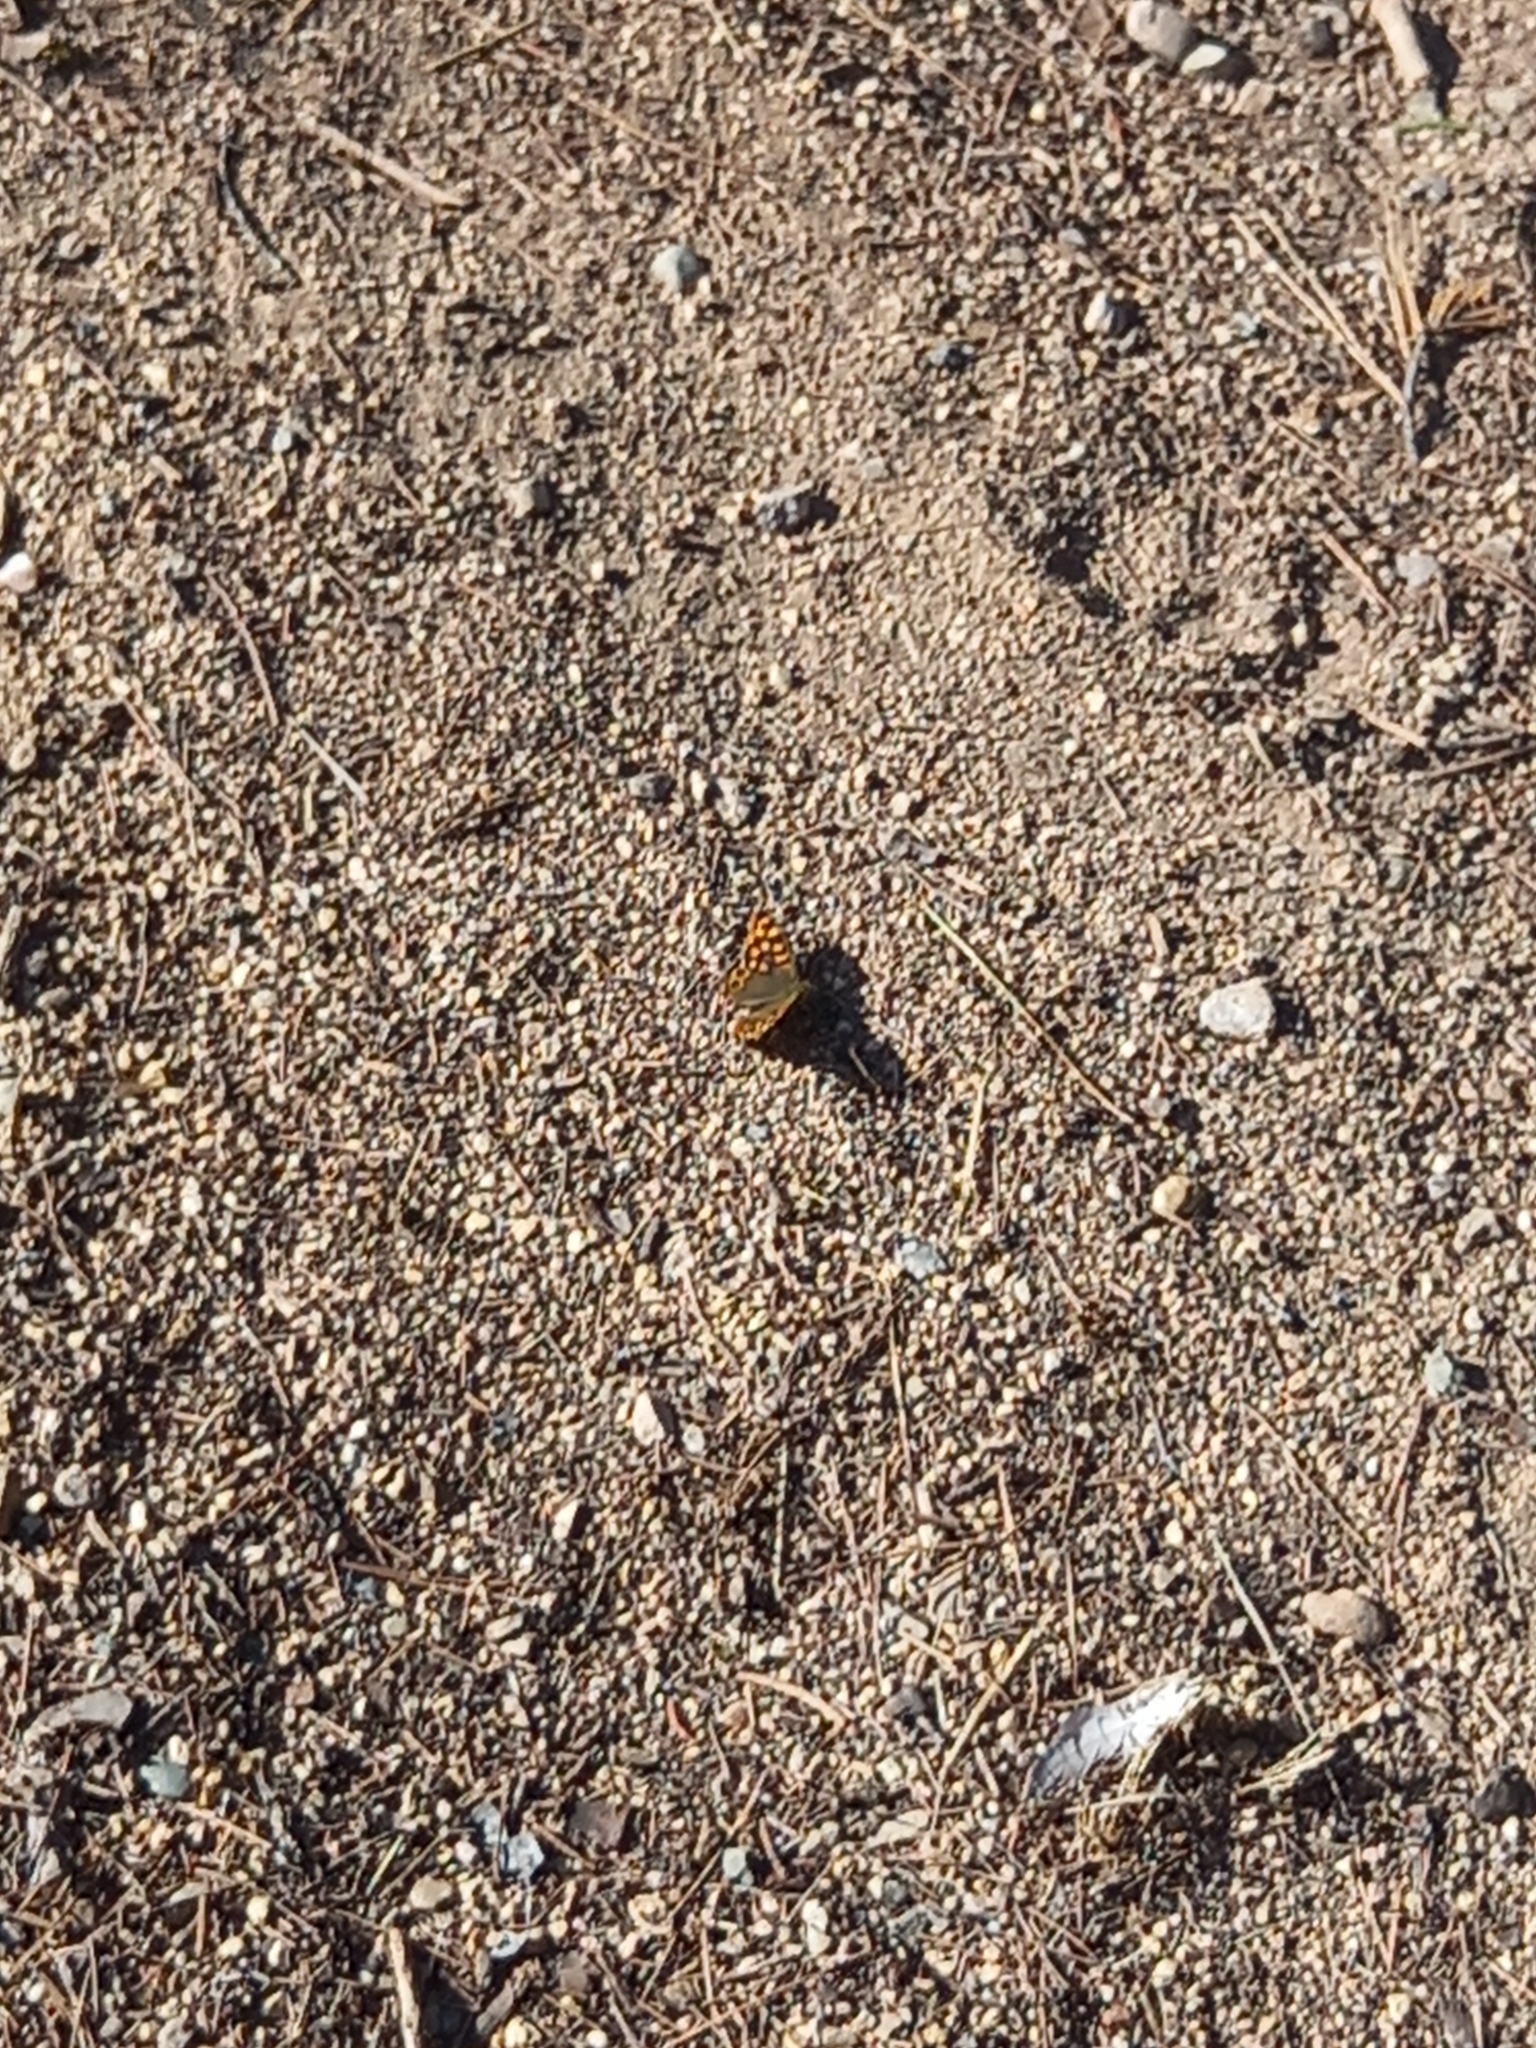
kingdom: Animalia
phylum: Arthropoda
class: Insecta
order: Lepidoptera
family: Nymphalidae
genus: Pararge
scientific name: Pararge aegeria
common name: Speckled wood
